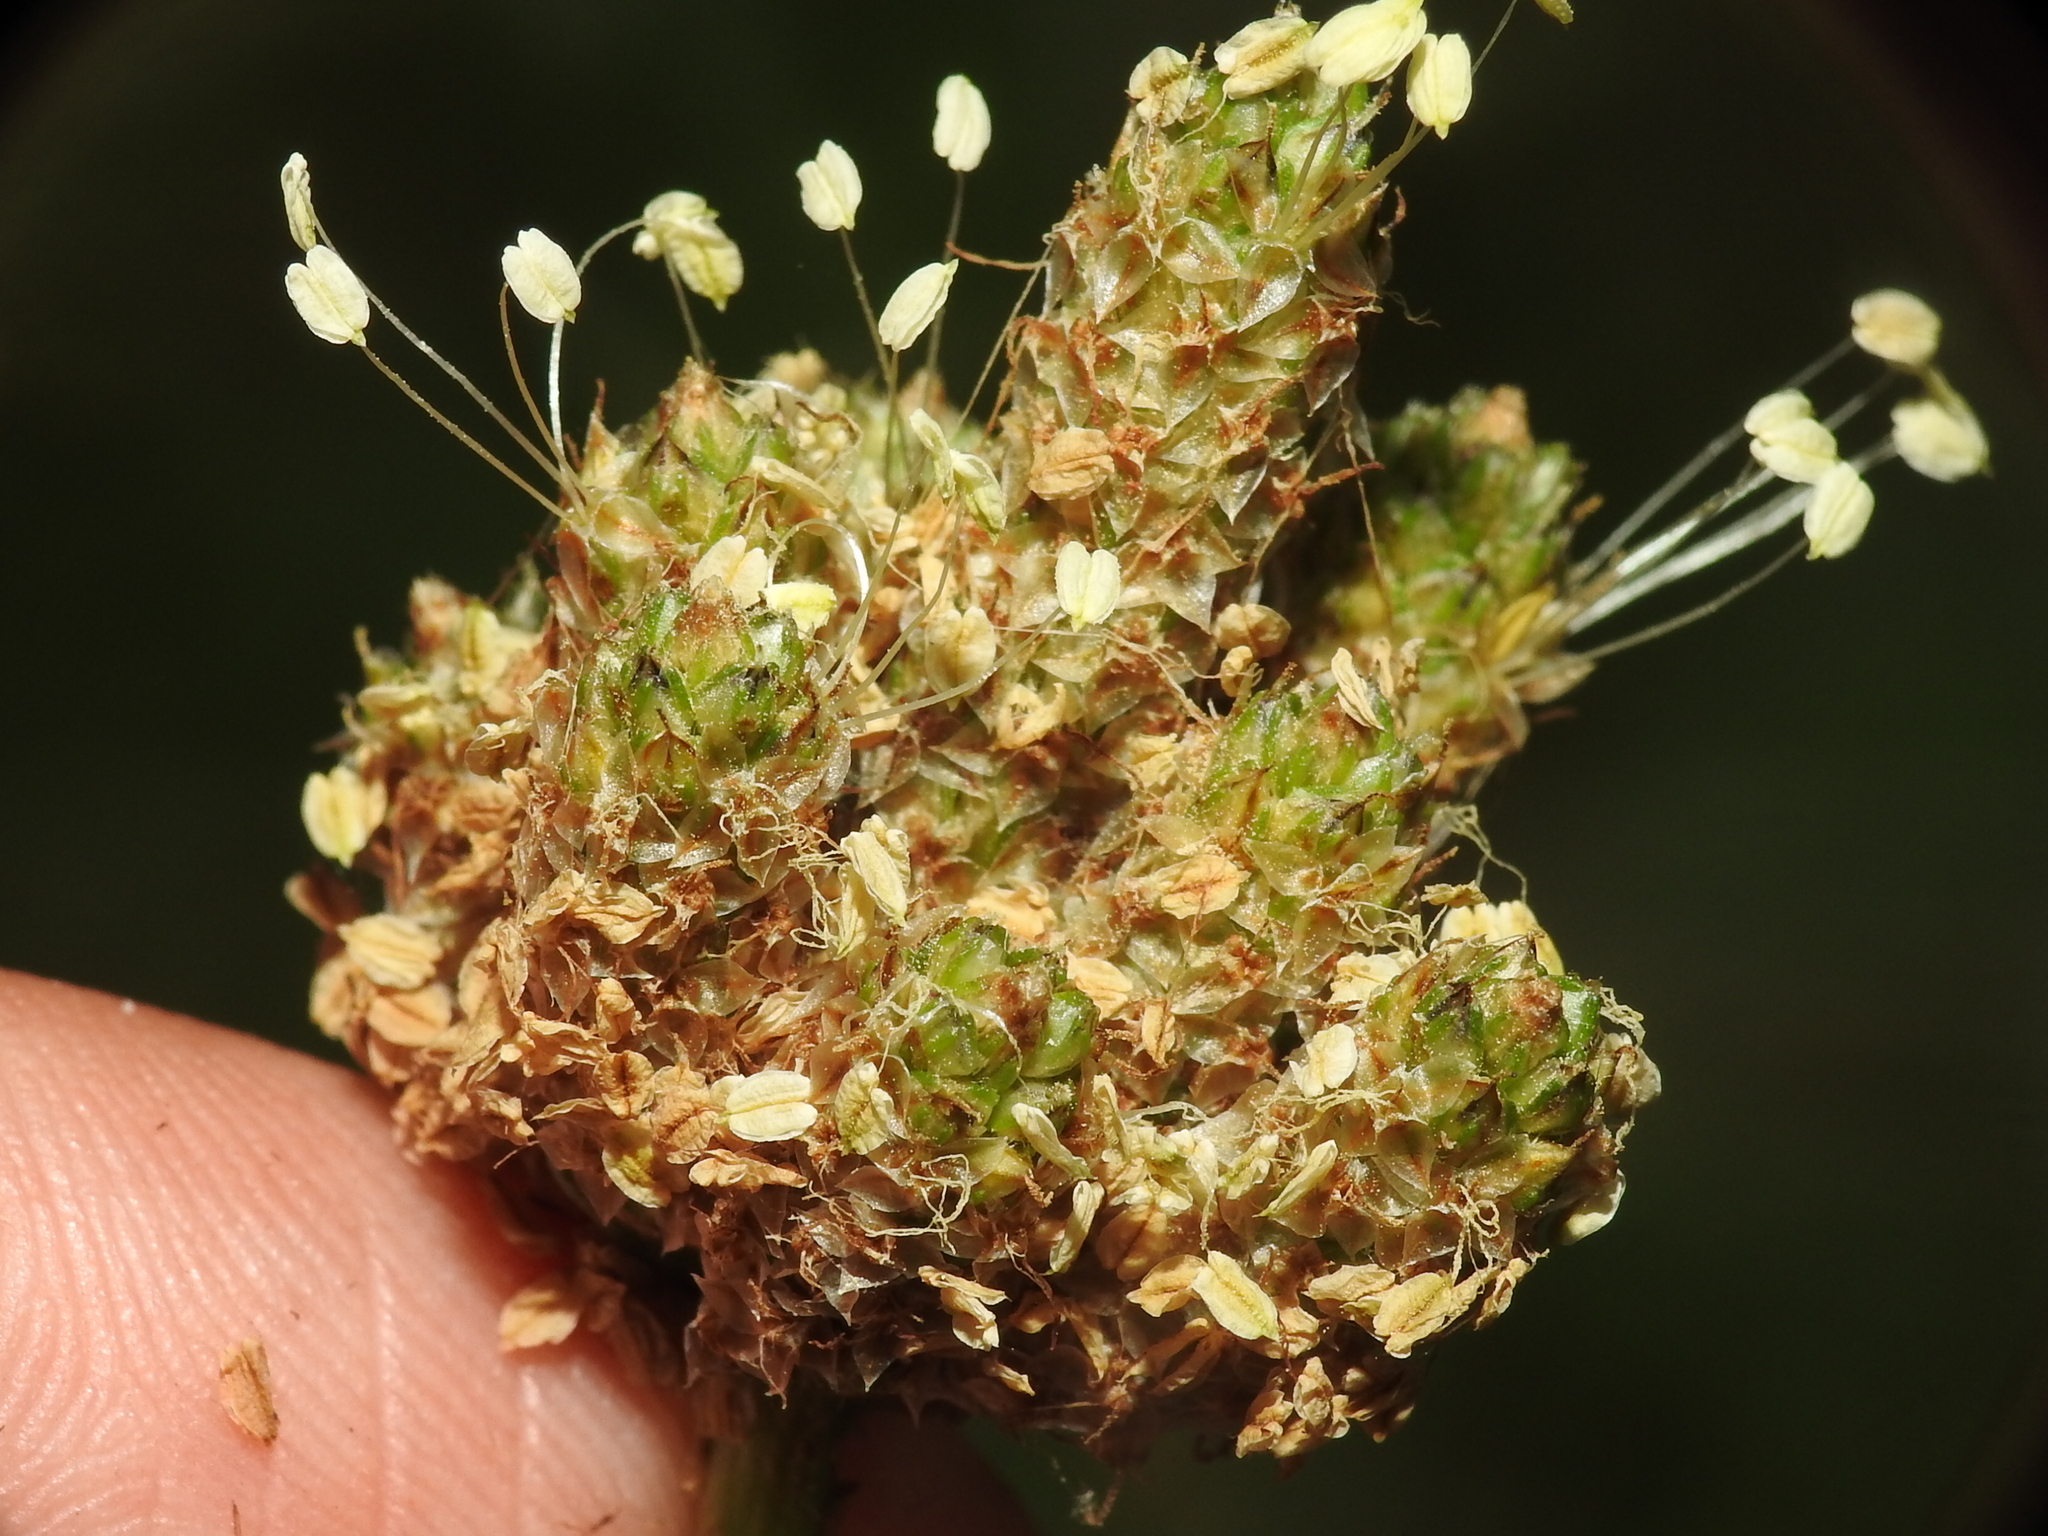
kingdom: Plantae
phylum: Tracheophyta
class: Magnoliopsida
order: Lamiales
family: Plantaginaceae
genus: Plantago
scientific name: Plantago lanceolata
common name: Ribwort plantain
